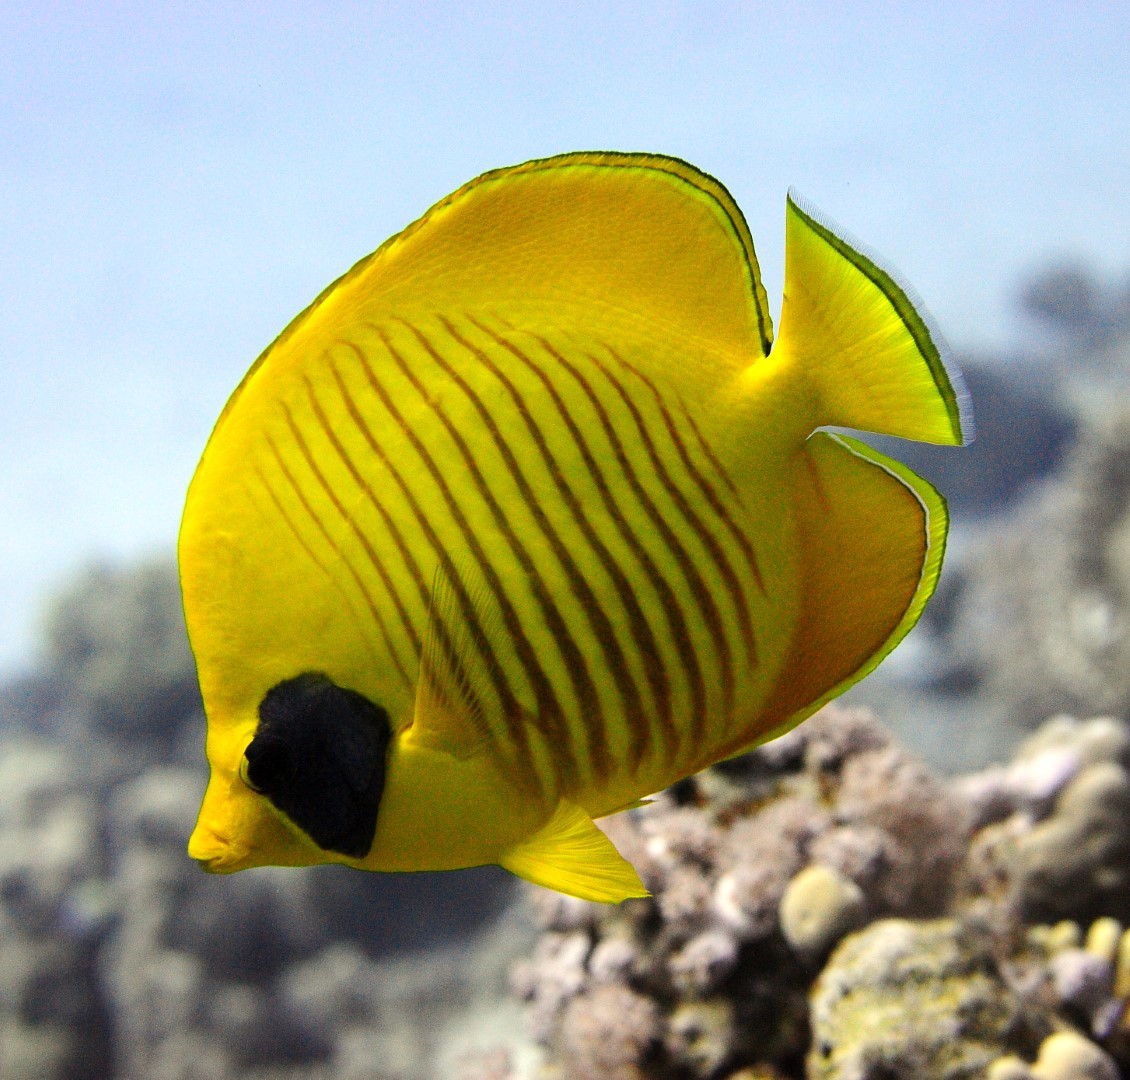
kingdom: Animalia
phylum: Chordata
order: Perciformes
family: Chaetodontidae
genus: Chaetodon
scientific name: Chaetodon semilarvatus
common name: Golden butterflyfish
